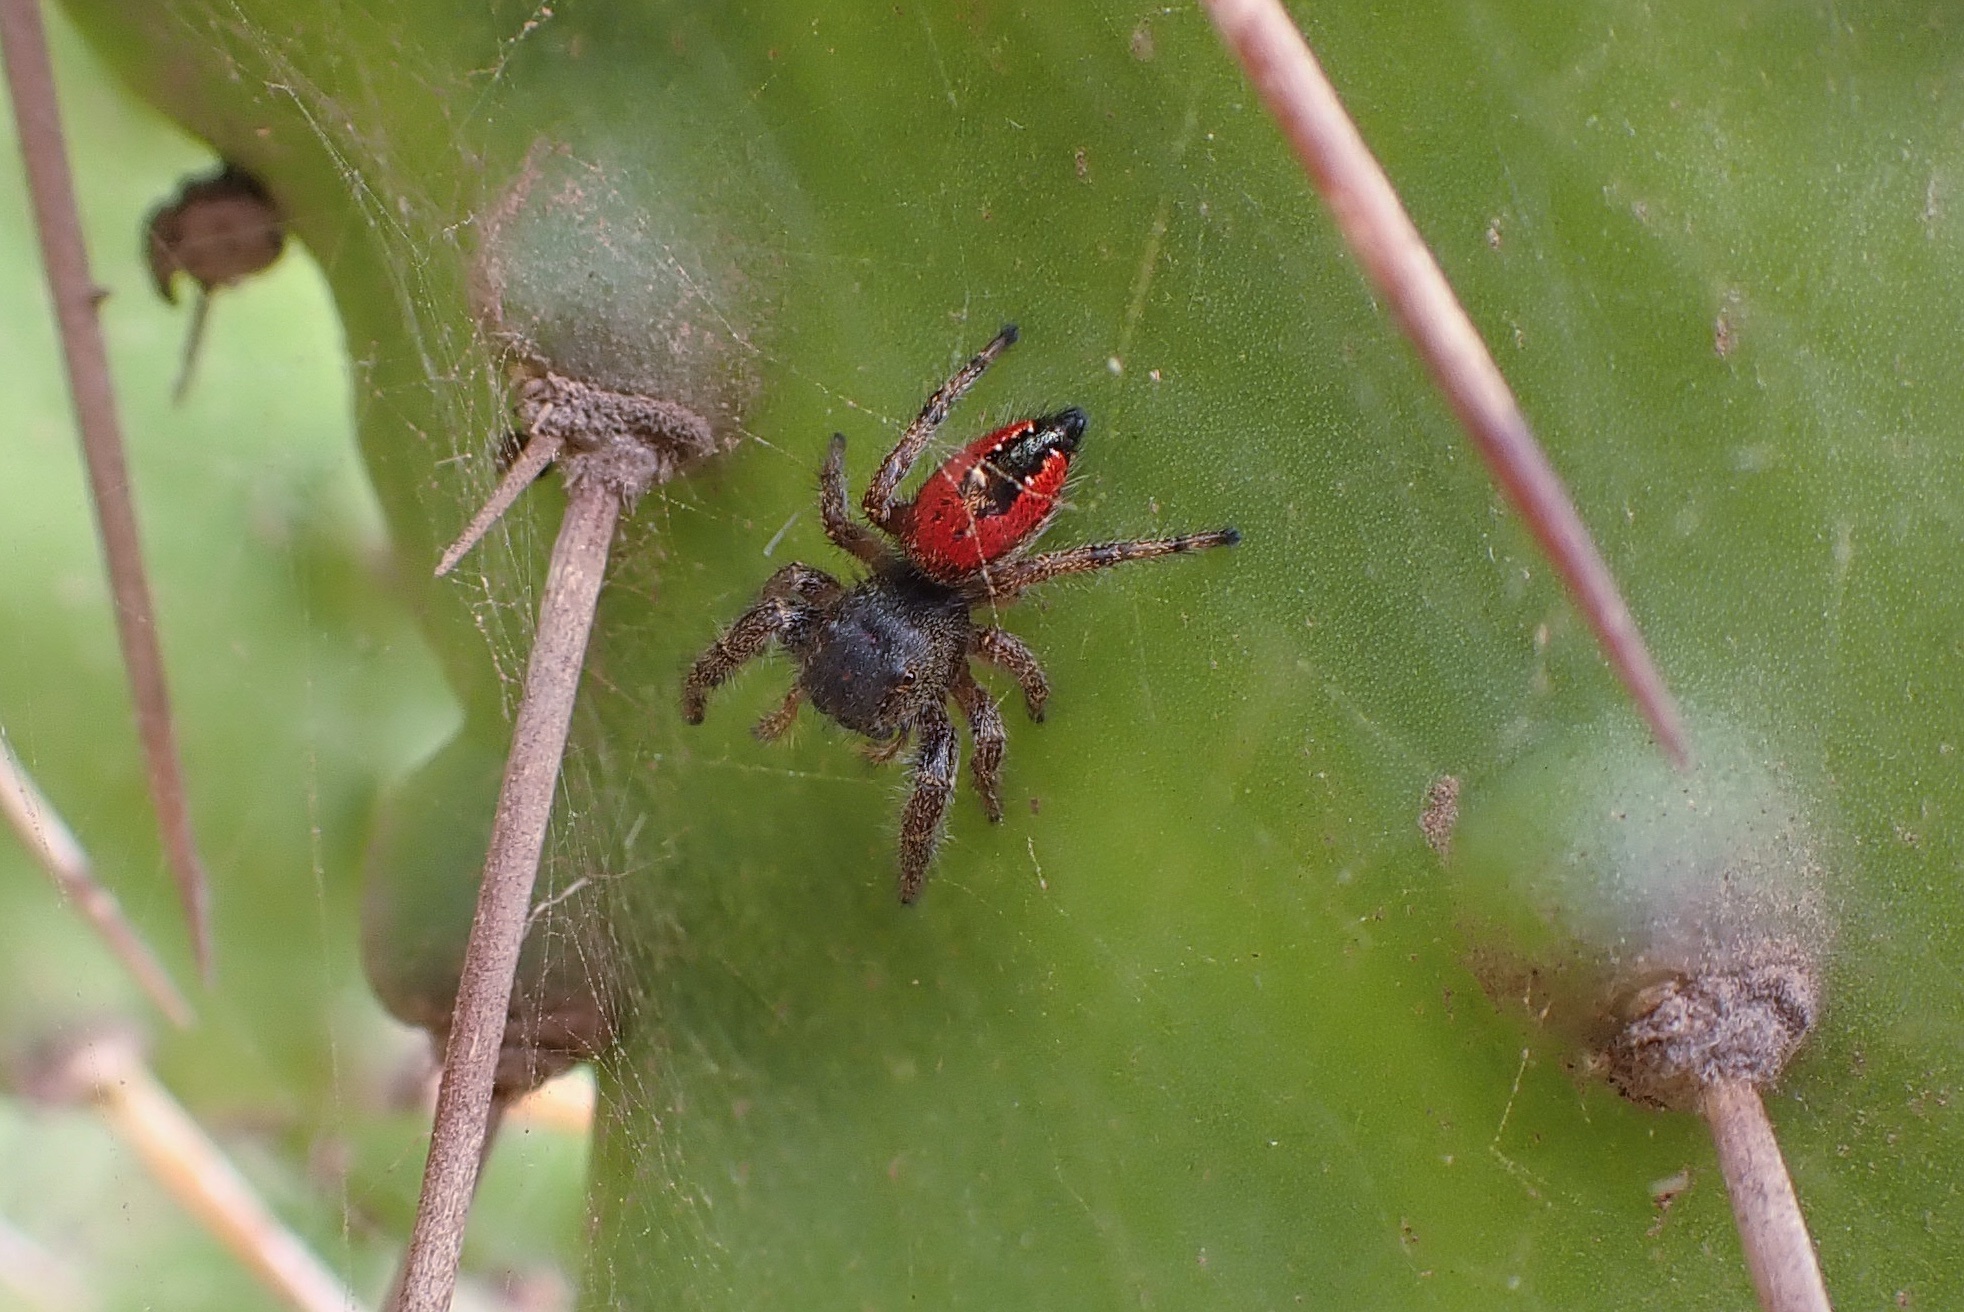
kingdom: Animalia
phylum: Arthropoda
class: Arachnida
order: Araneae
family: Salticidae
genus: Phidippus
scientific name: Phidippus johnsoni
